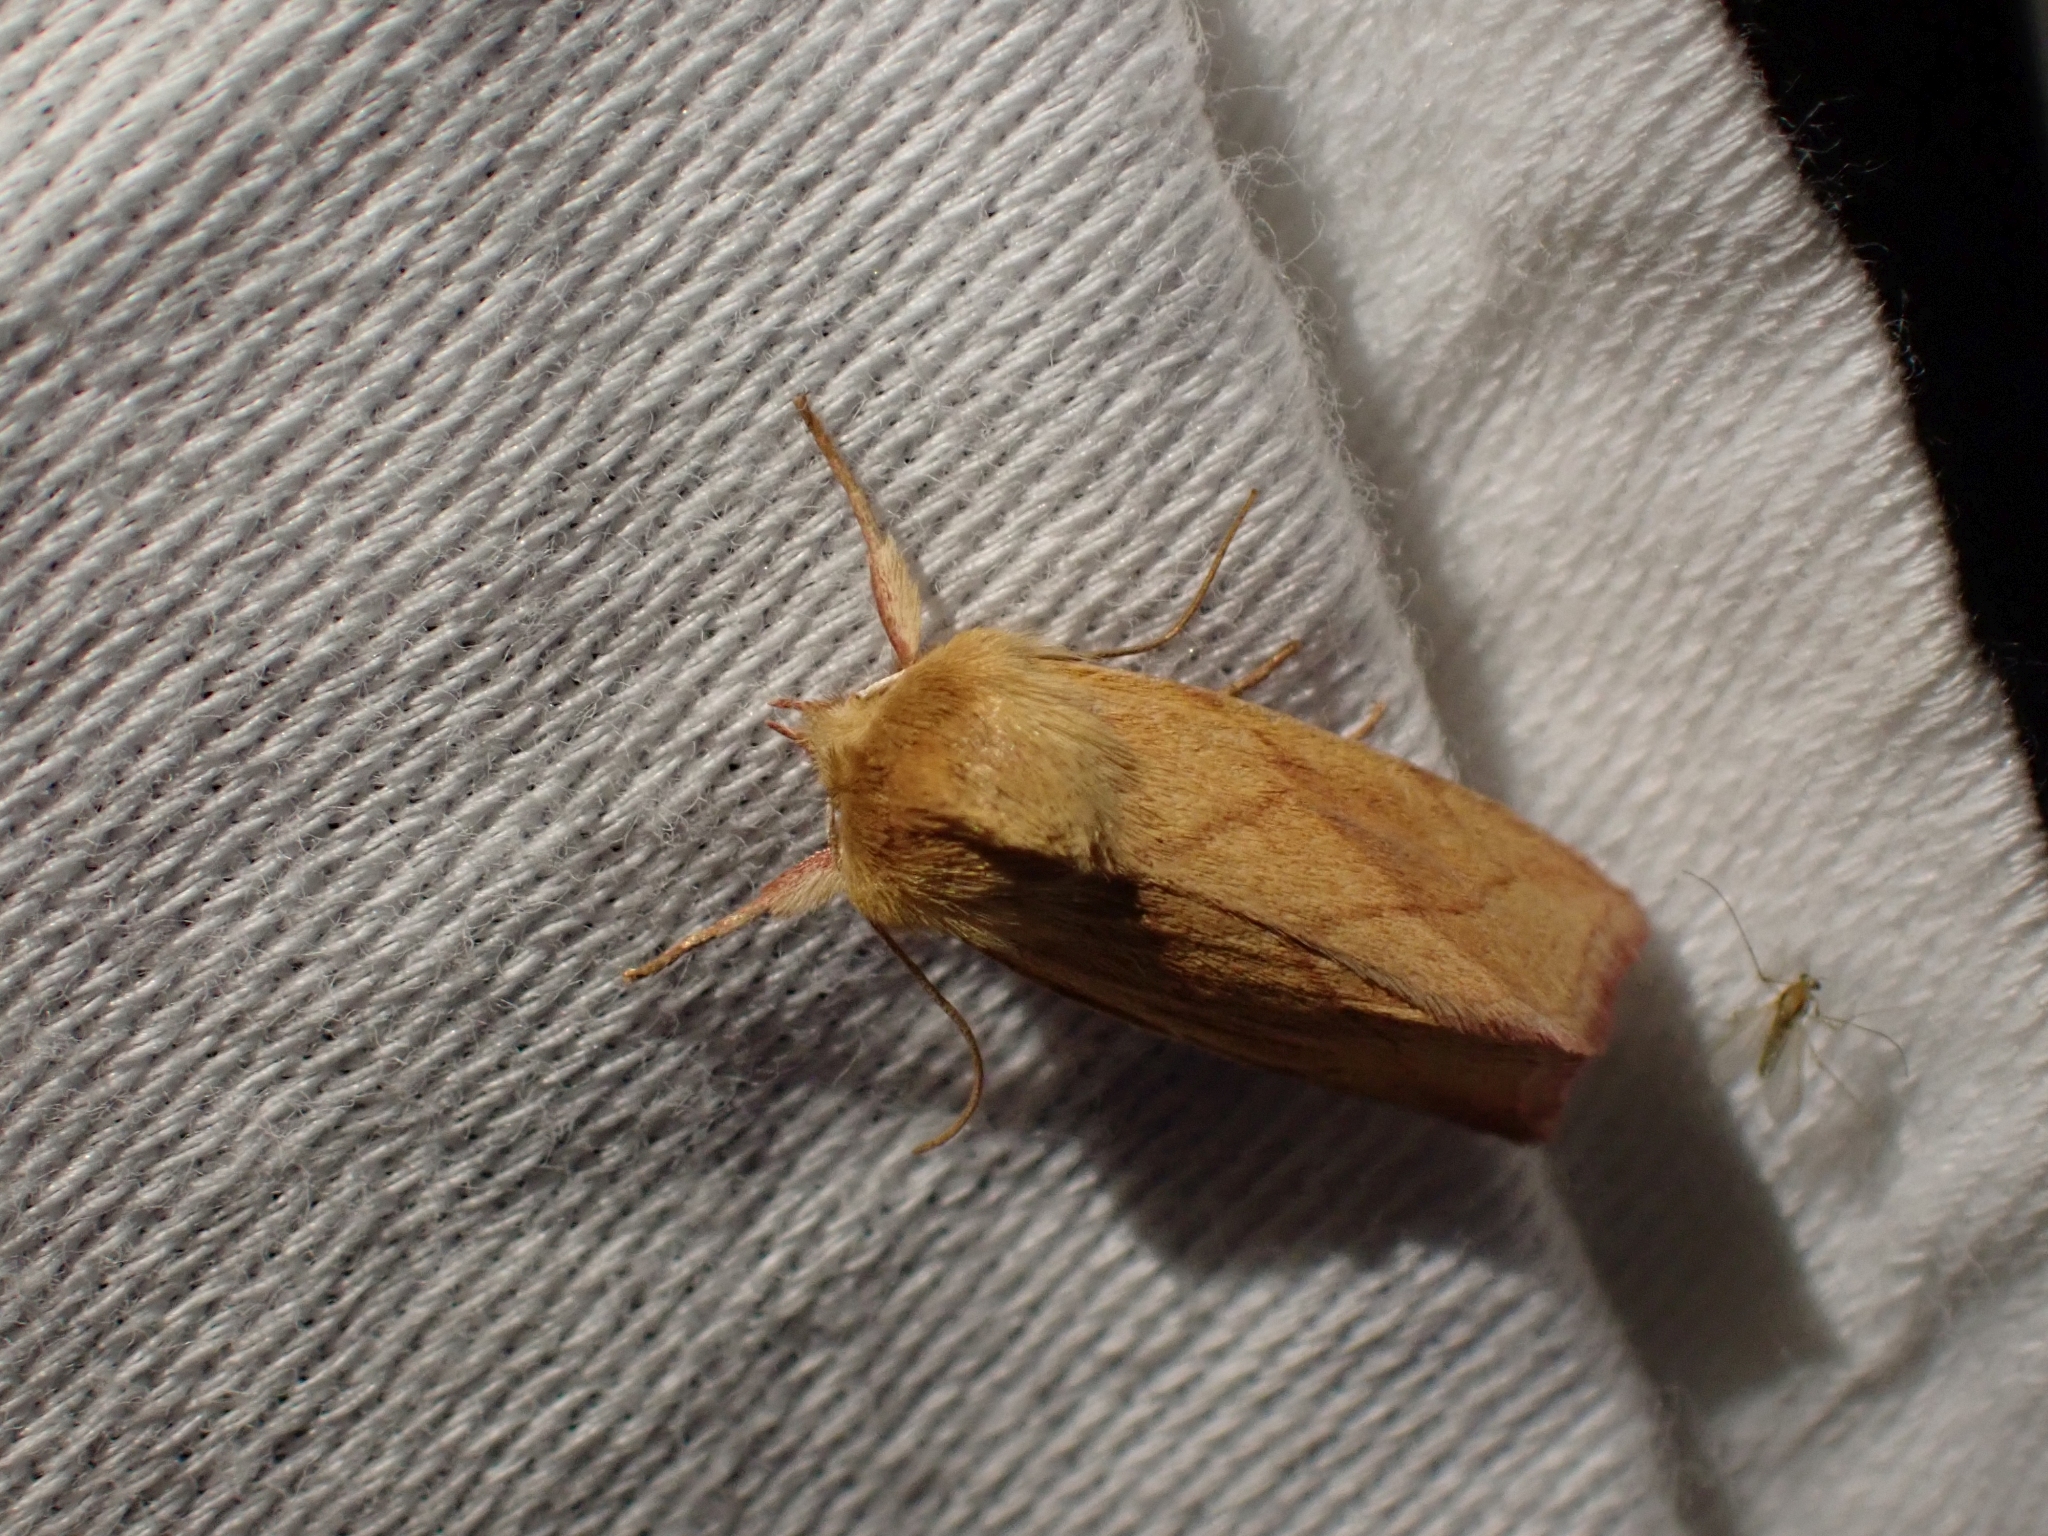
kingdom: Animalia
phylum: Arthropoda
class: Insecta
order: Lepidoptera
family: Noctuidae
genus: Zosteropoda
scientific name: Zosteropoda hirtipes
